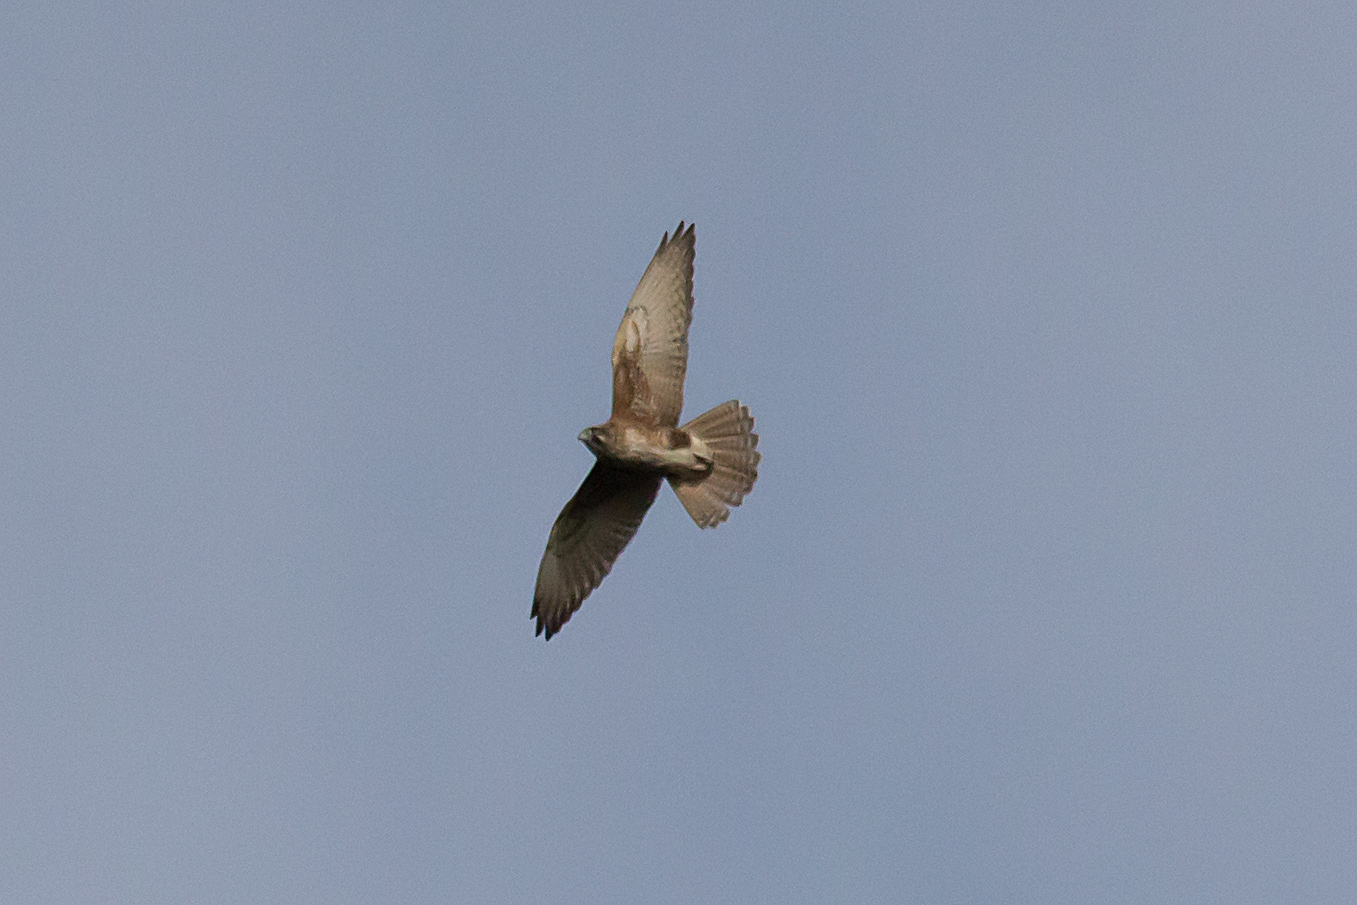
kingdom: Animalia
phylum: Chordata
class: Aves
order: Falconiformes
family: Falconidae
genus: Falco
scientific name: Falco berigora
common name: Brown falcon
